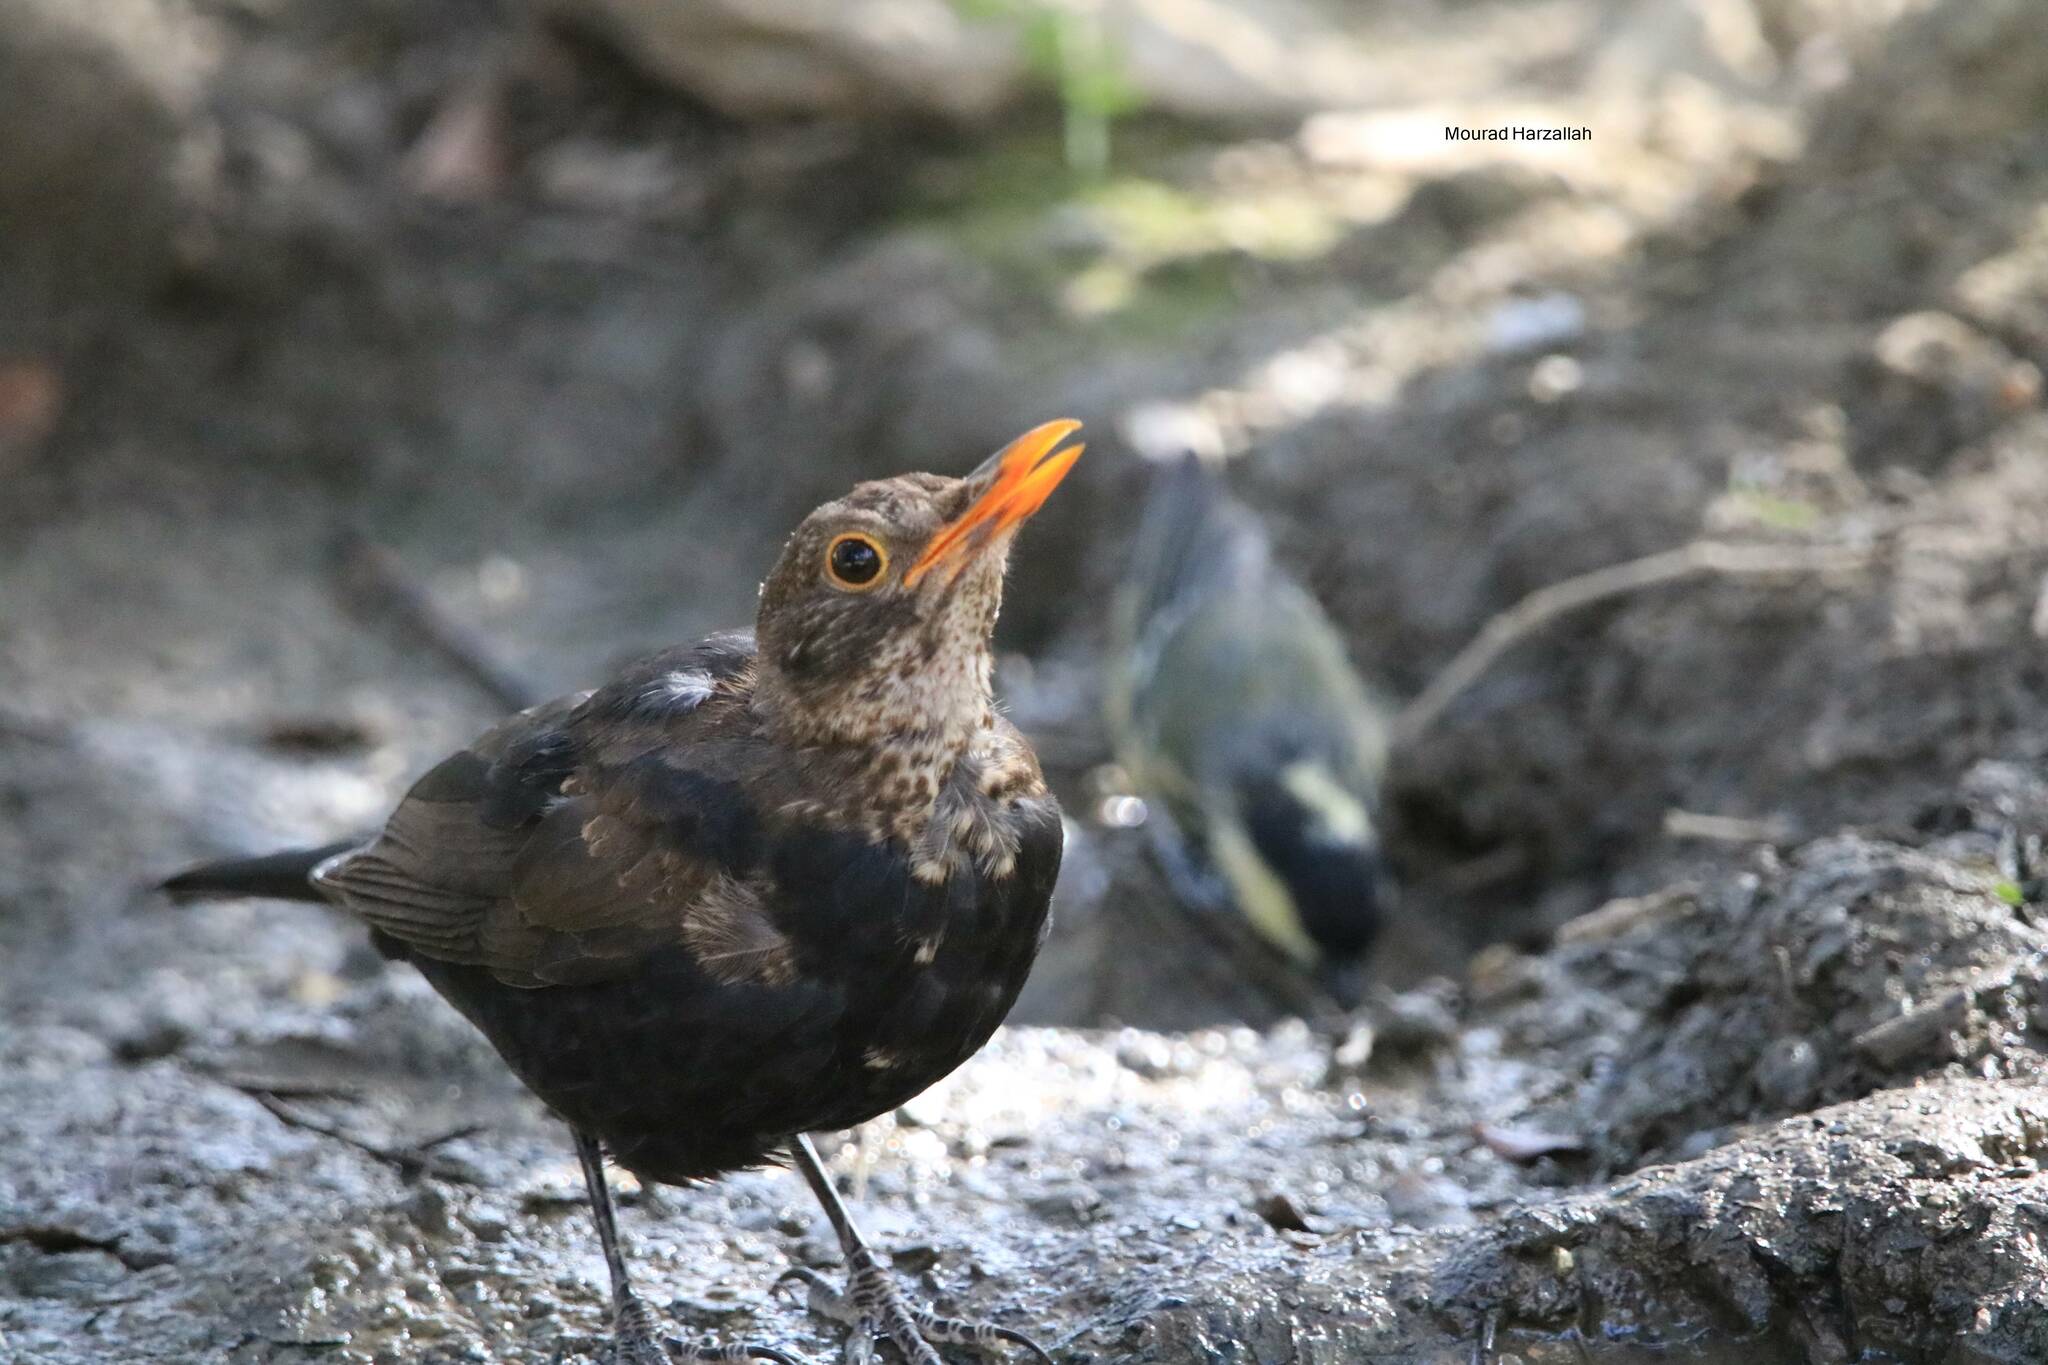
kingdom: Animalia
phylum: Chordata
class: Aves
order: Passeriformes
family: Turdidae
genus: Turdus
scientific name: Turdus merula
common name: Common blackbird
